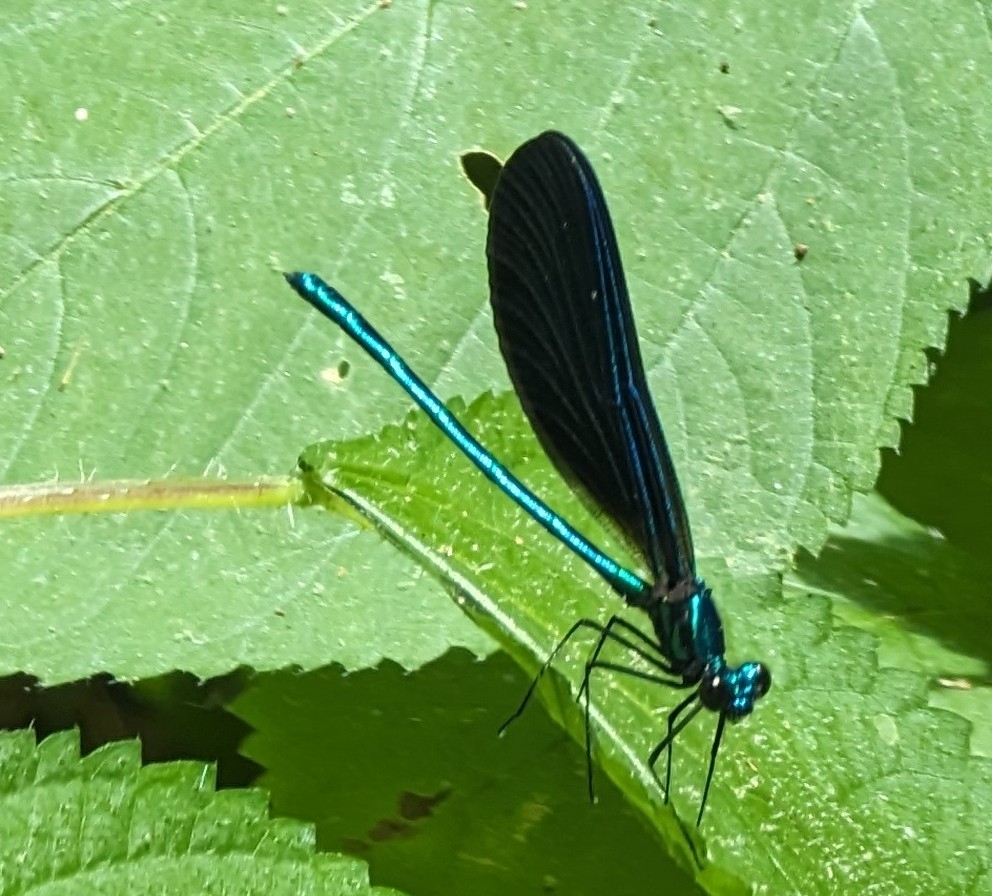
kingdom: Animalia
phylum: Arthropoda
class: Insecta
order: Odonata
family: Calopterygidae
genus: Calopteryx
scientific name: Calopteryx maculata
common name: Ebony jewelwing
